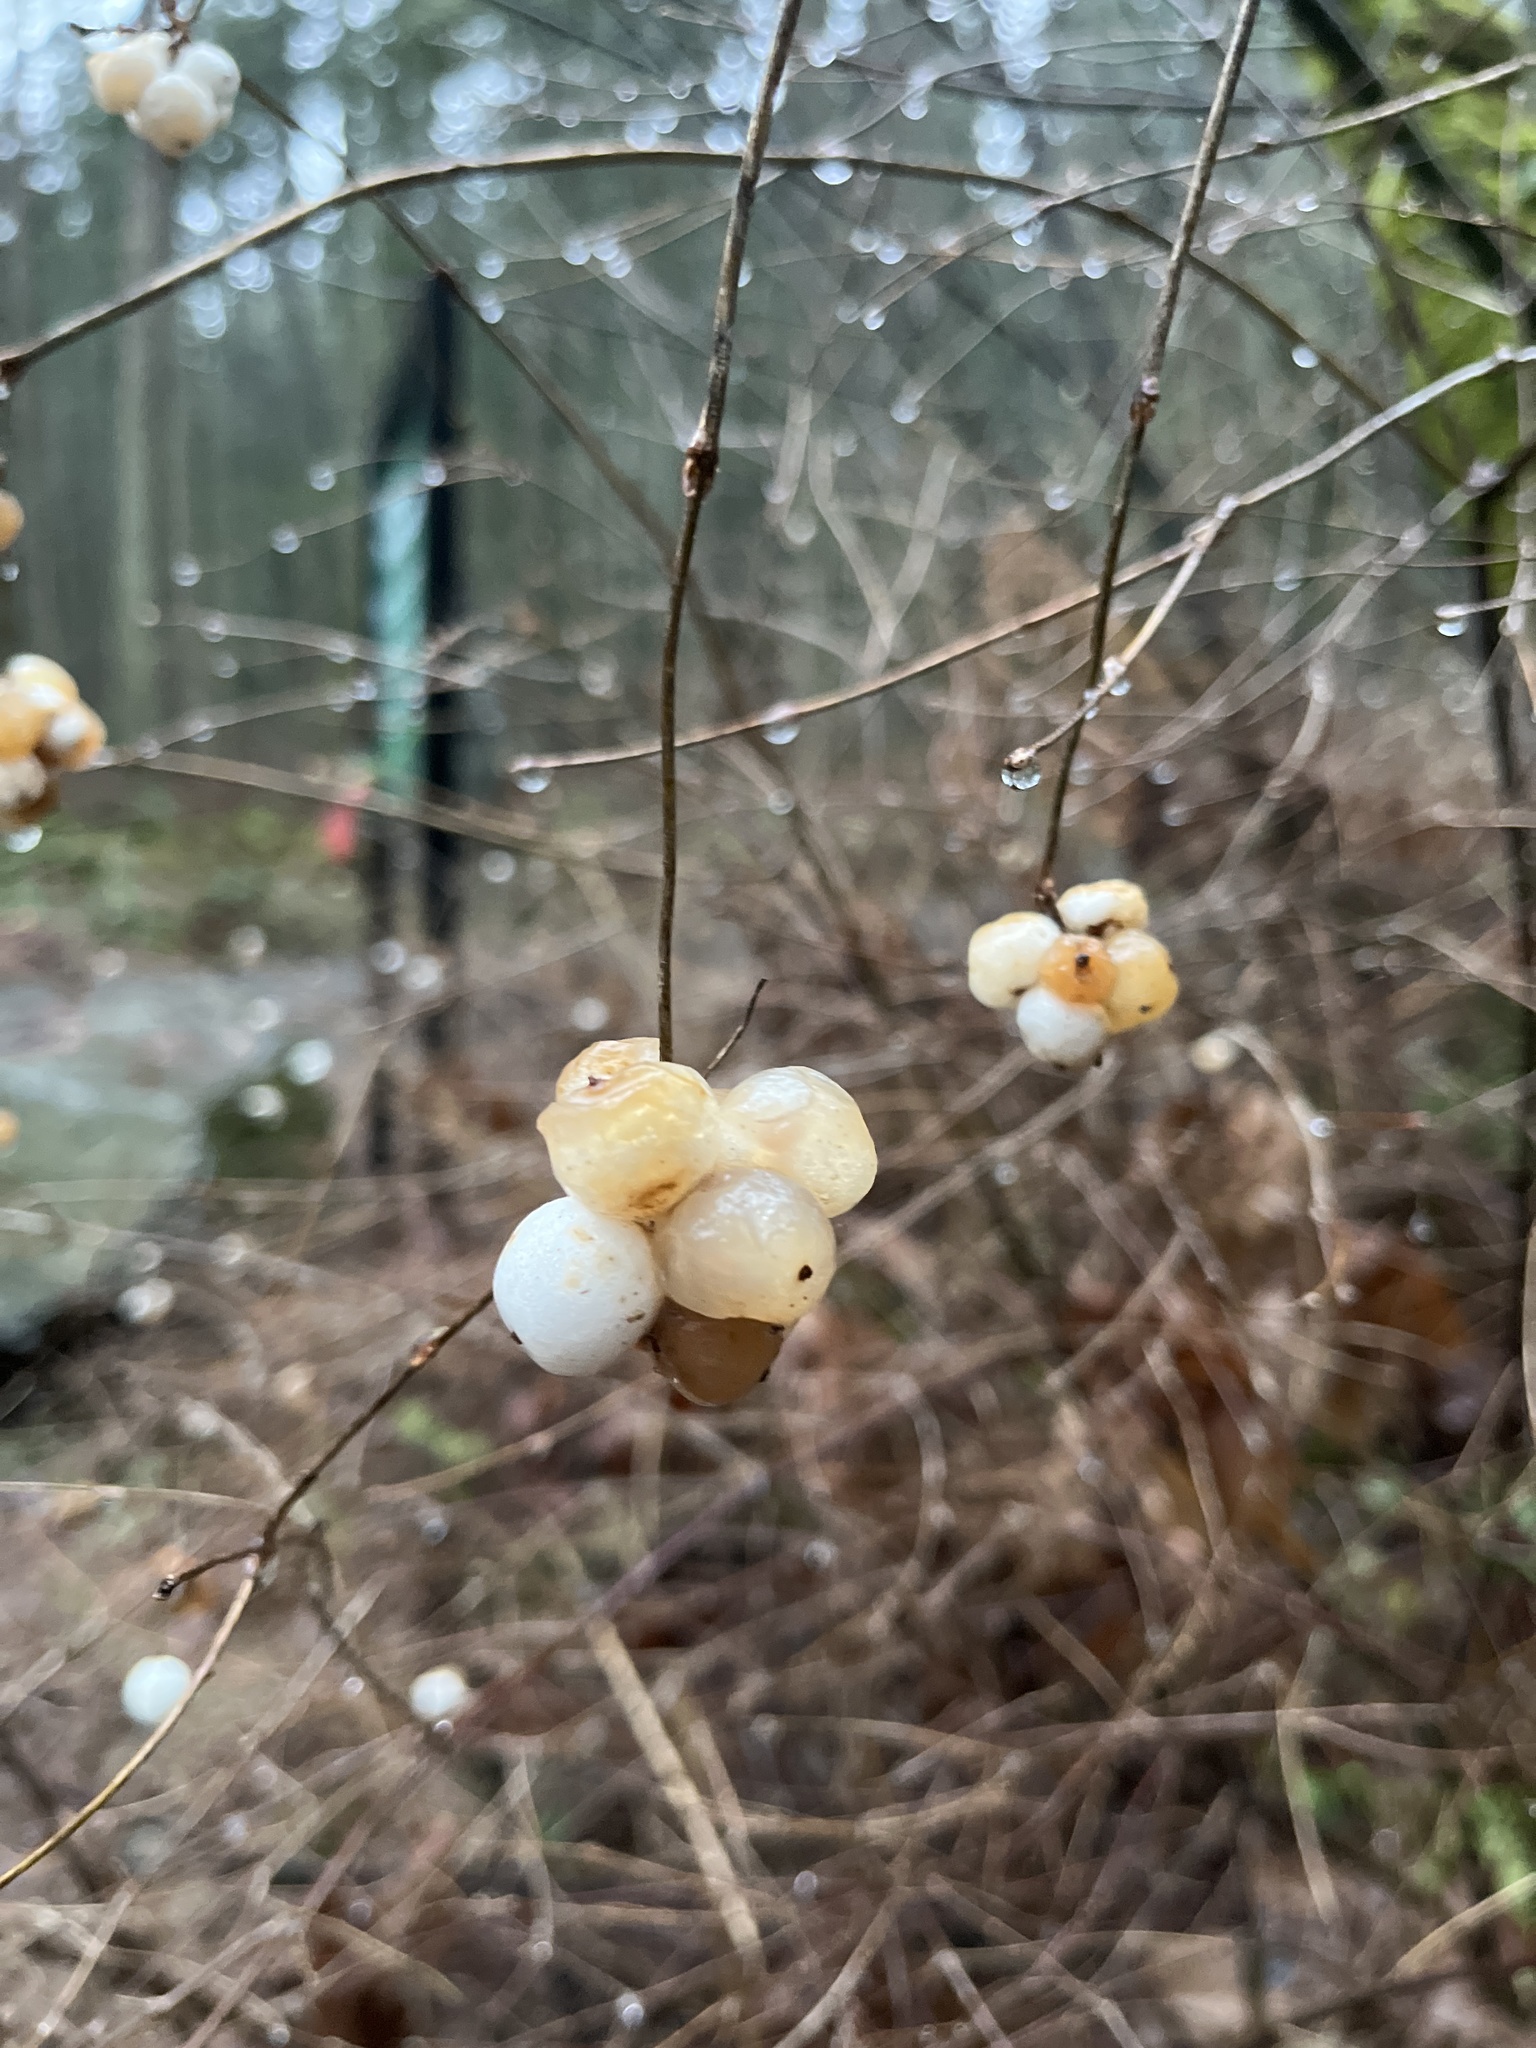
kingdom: Plantae
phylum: Tracheophyta
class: Magnoliopsida
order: Dipsacales
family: Caprifoliaceae
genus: Symphoricarpos
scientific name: Symphoricarpos albus
